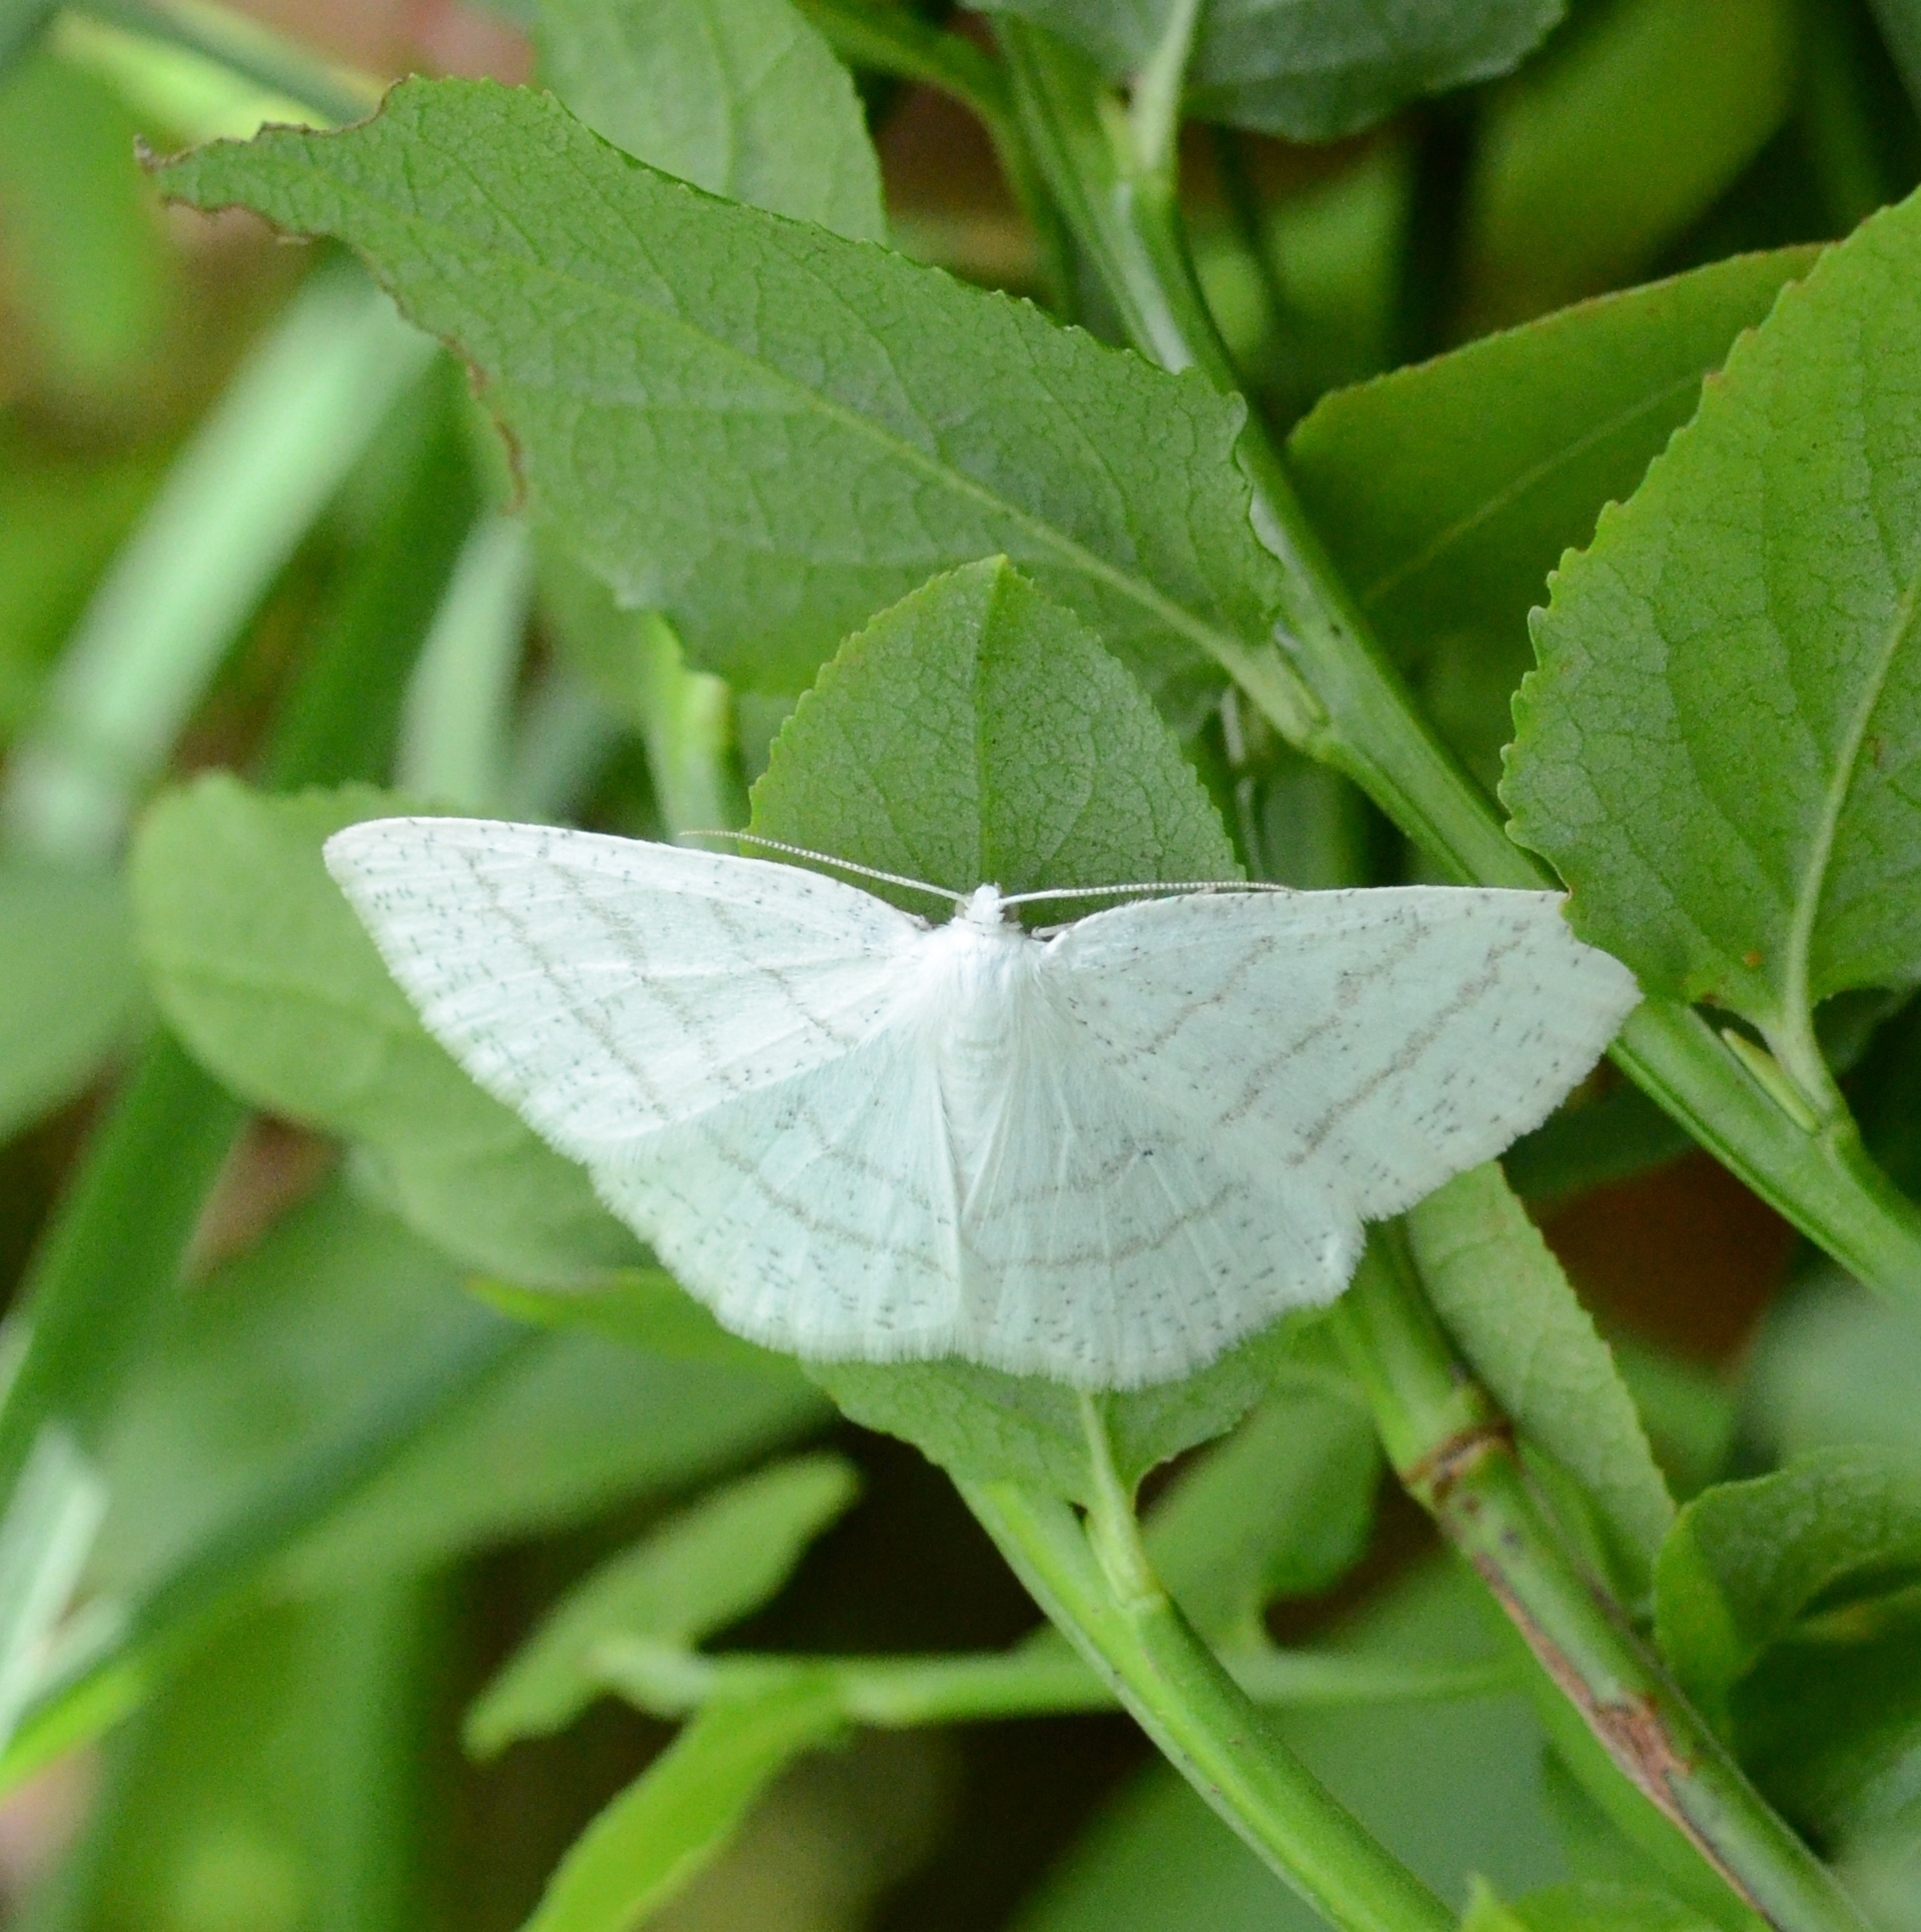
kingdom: Animalia
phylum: Arthropoda
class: Insecta
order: Lepidoptera
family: Geometridae
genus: Cabera
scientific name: Cabera pusaria
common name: Common white wave
